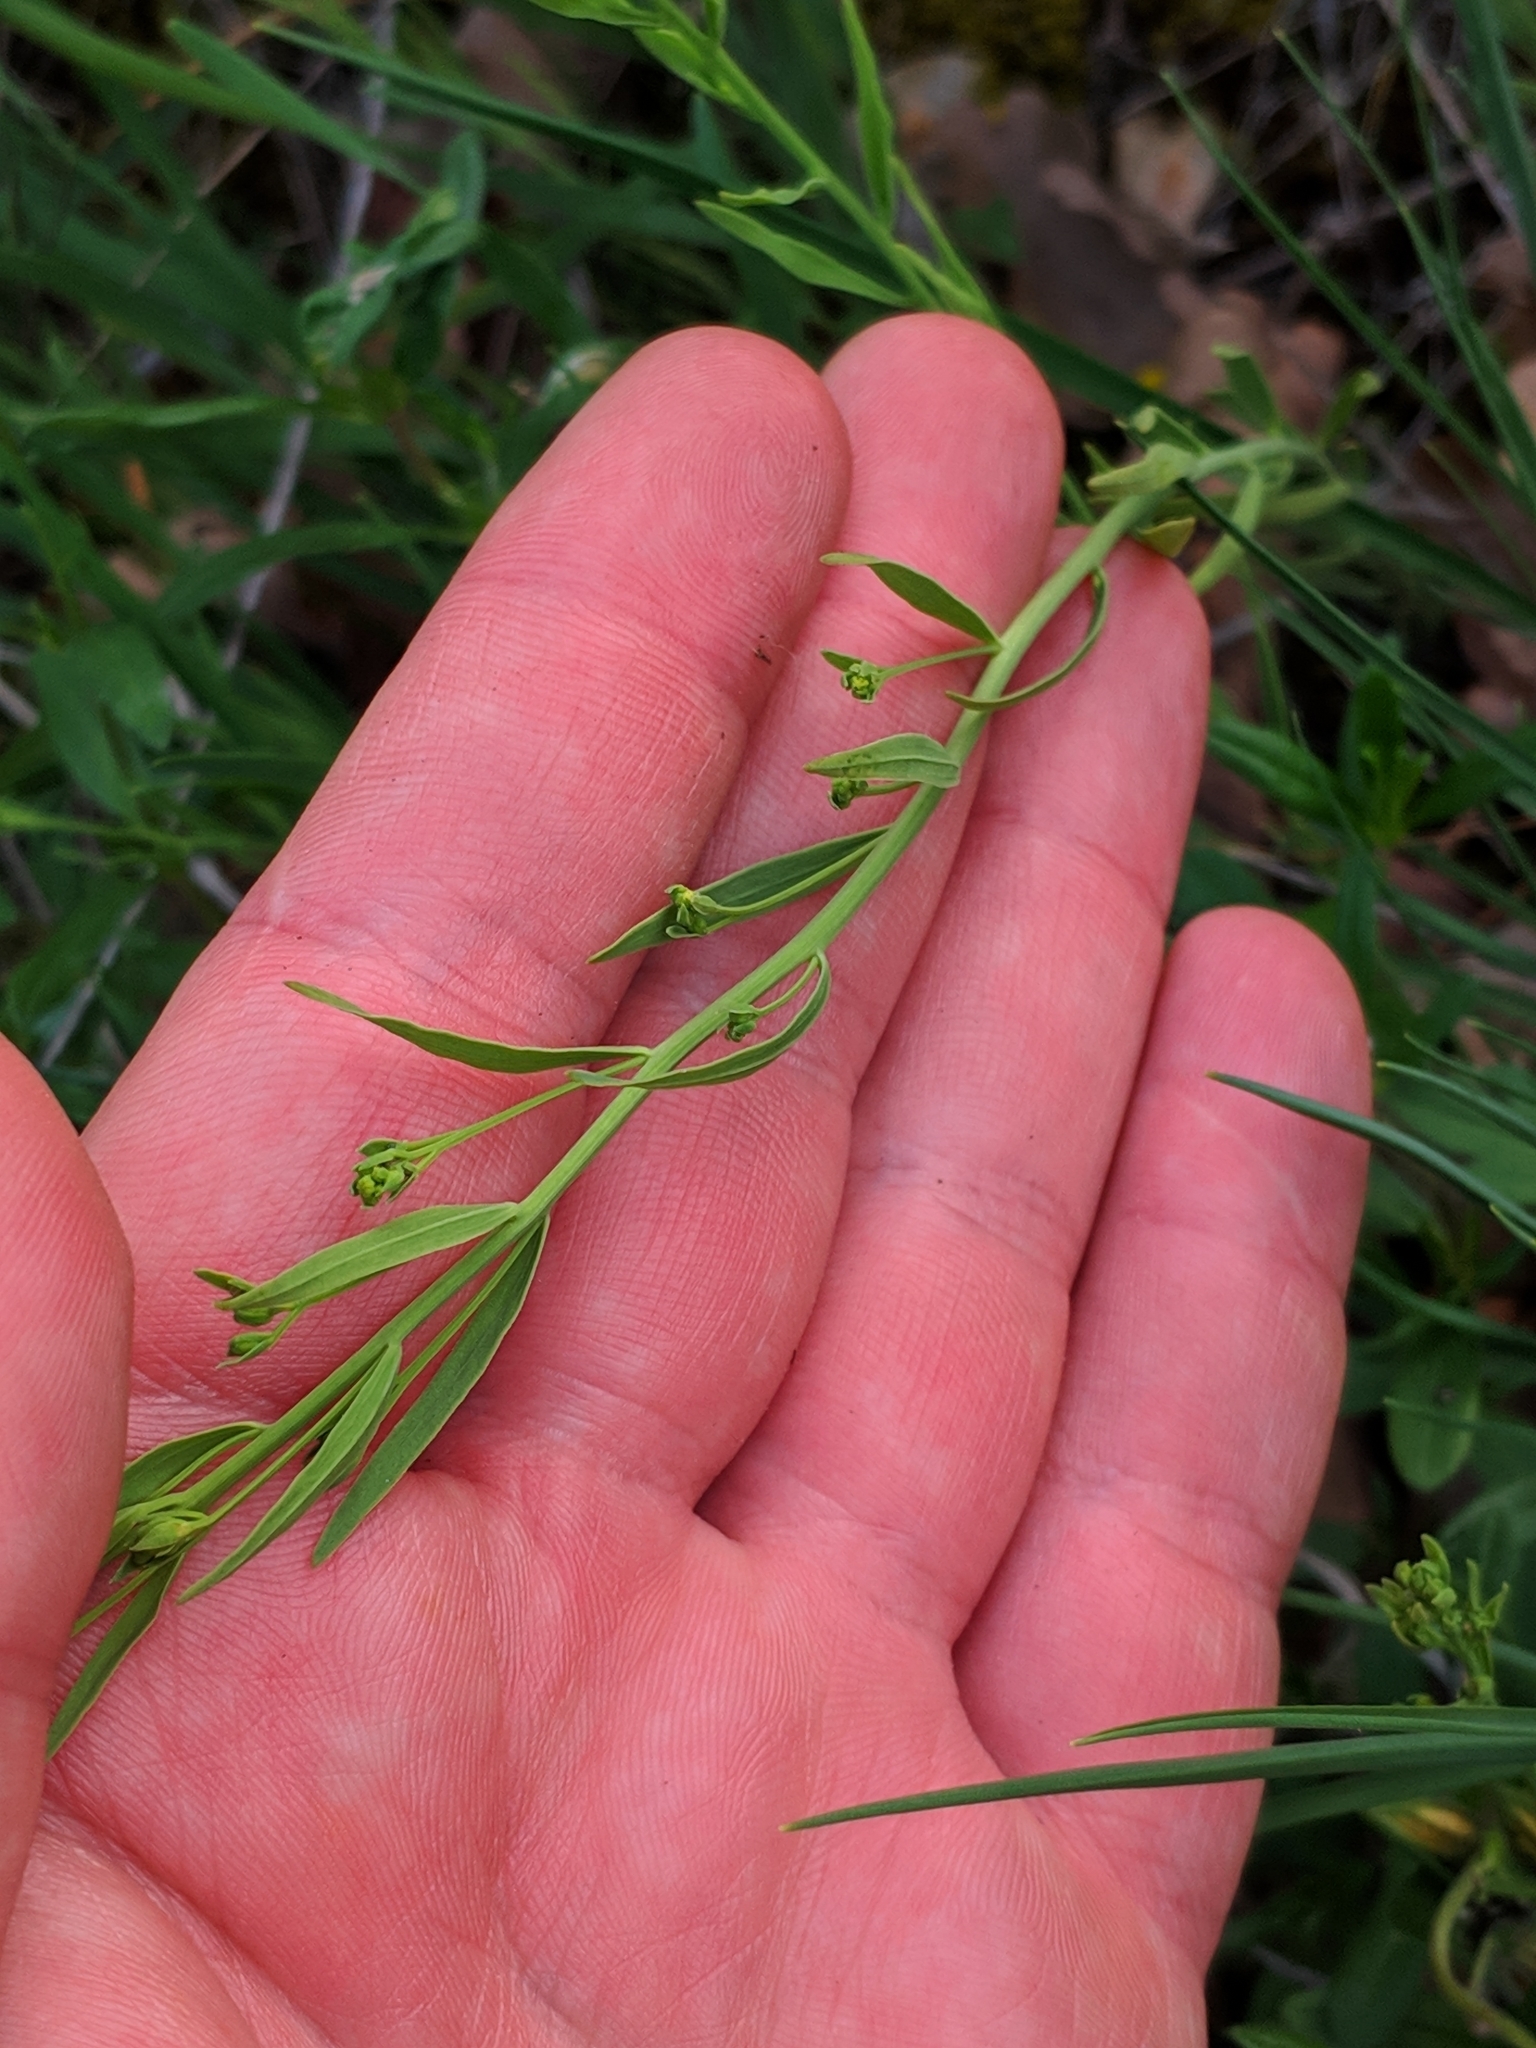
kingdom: Plantae
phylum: Tracheophyta
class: Magnoliopsida
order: Santalales
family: Thesiaceae
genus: Thesium
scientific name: Thesium linophyllon
